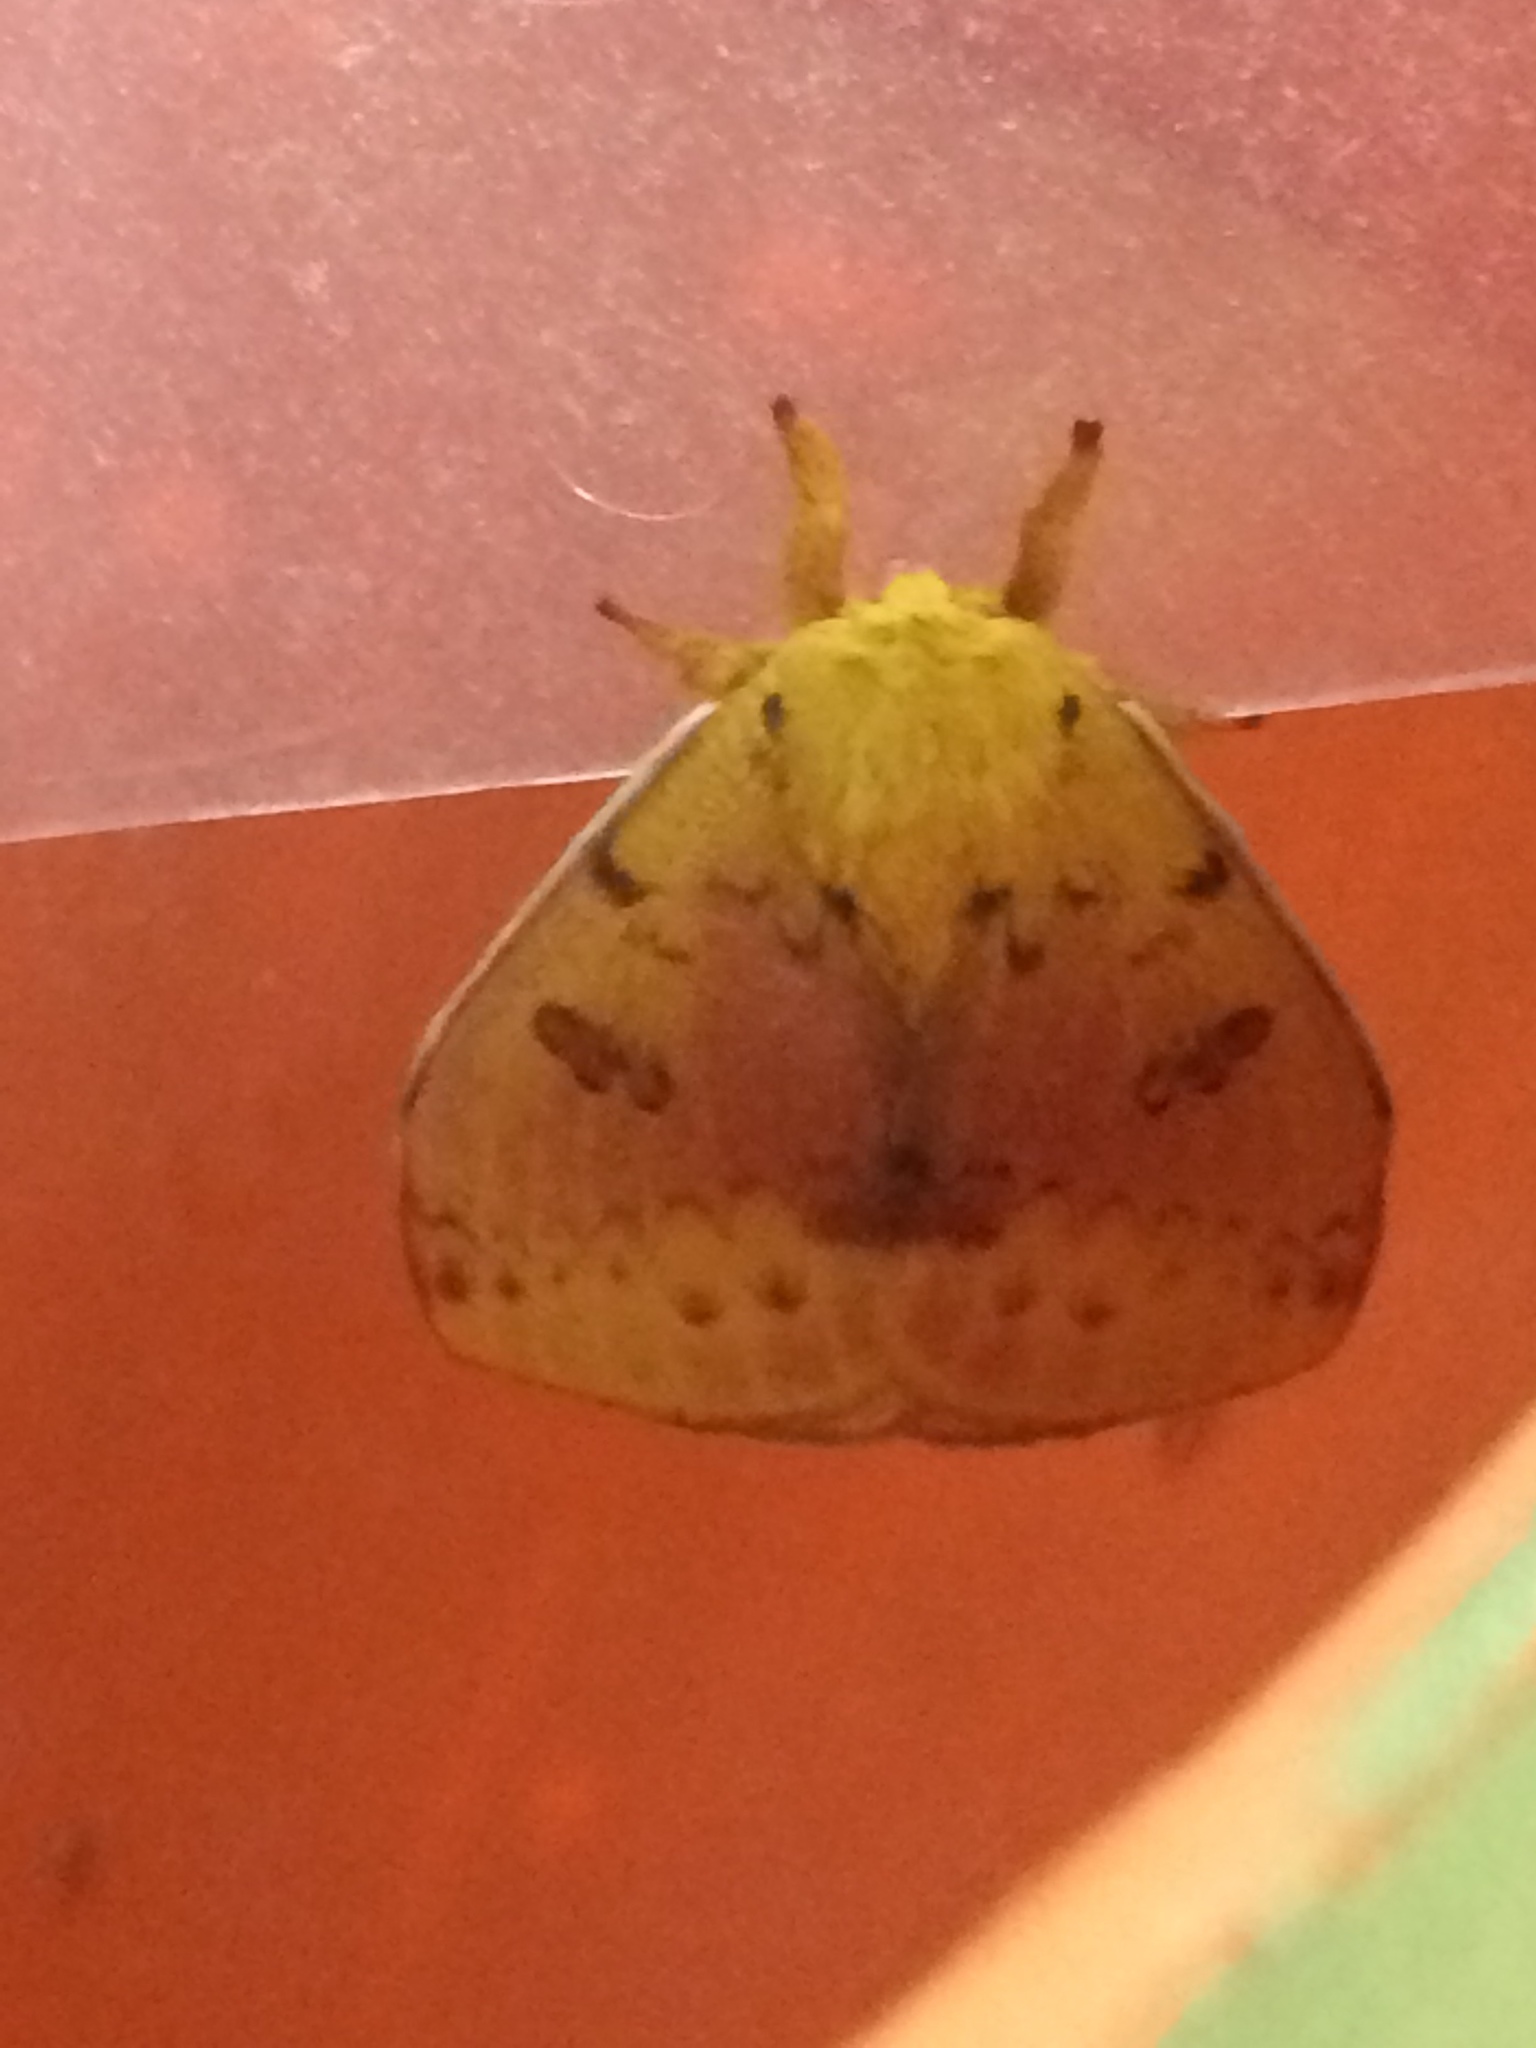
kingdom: Animalia
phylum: Arthropoda
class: Insecta
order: Lepidoptera
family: Saturniidae
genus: Automeris
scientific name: Automeris io
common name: Io moth
